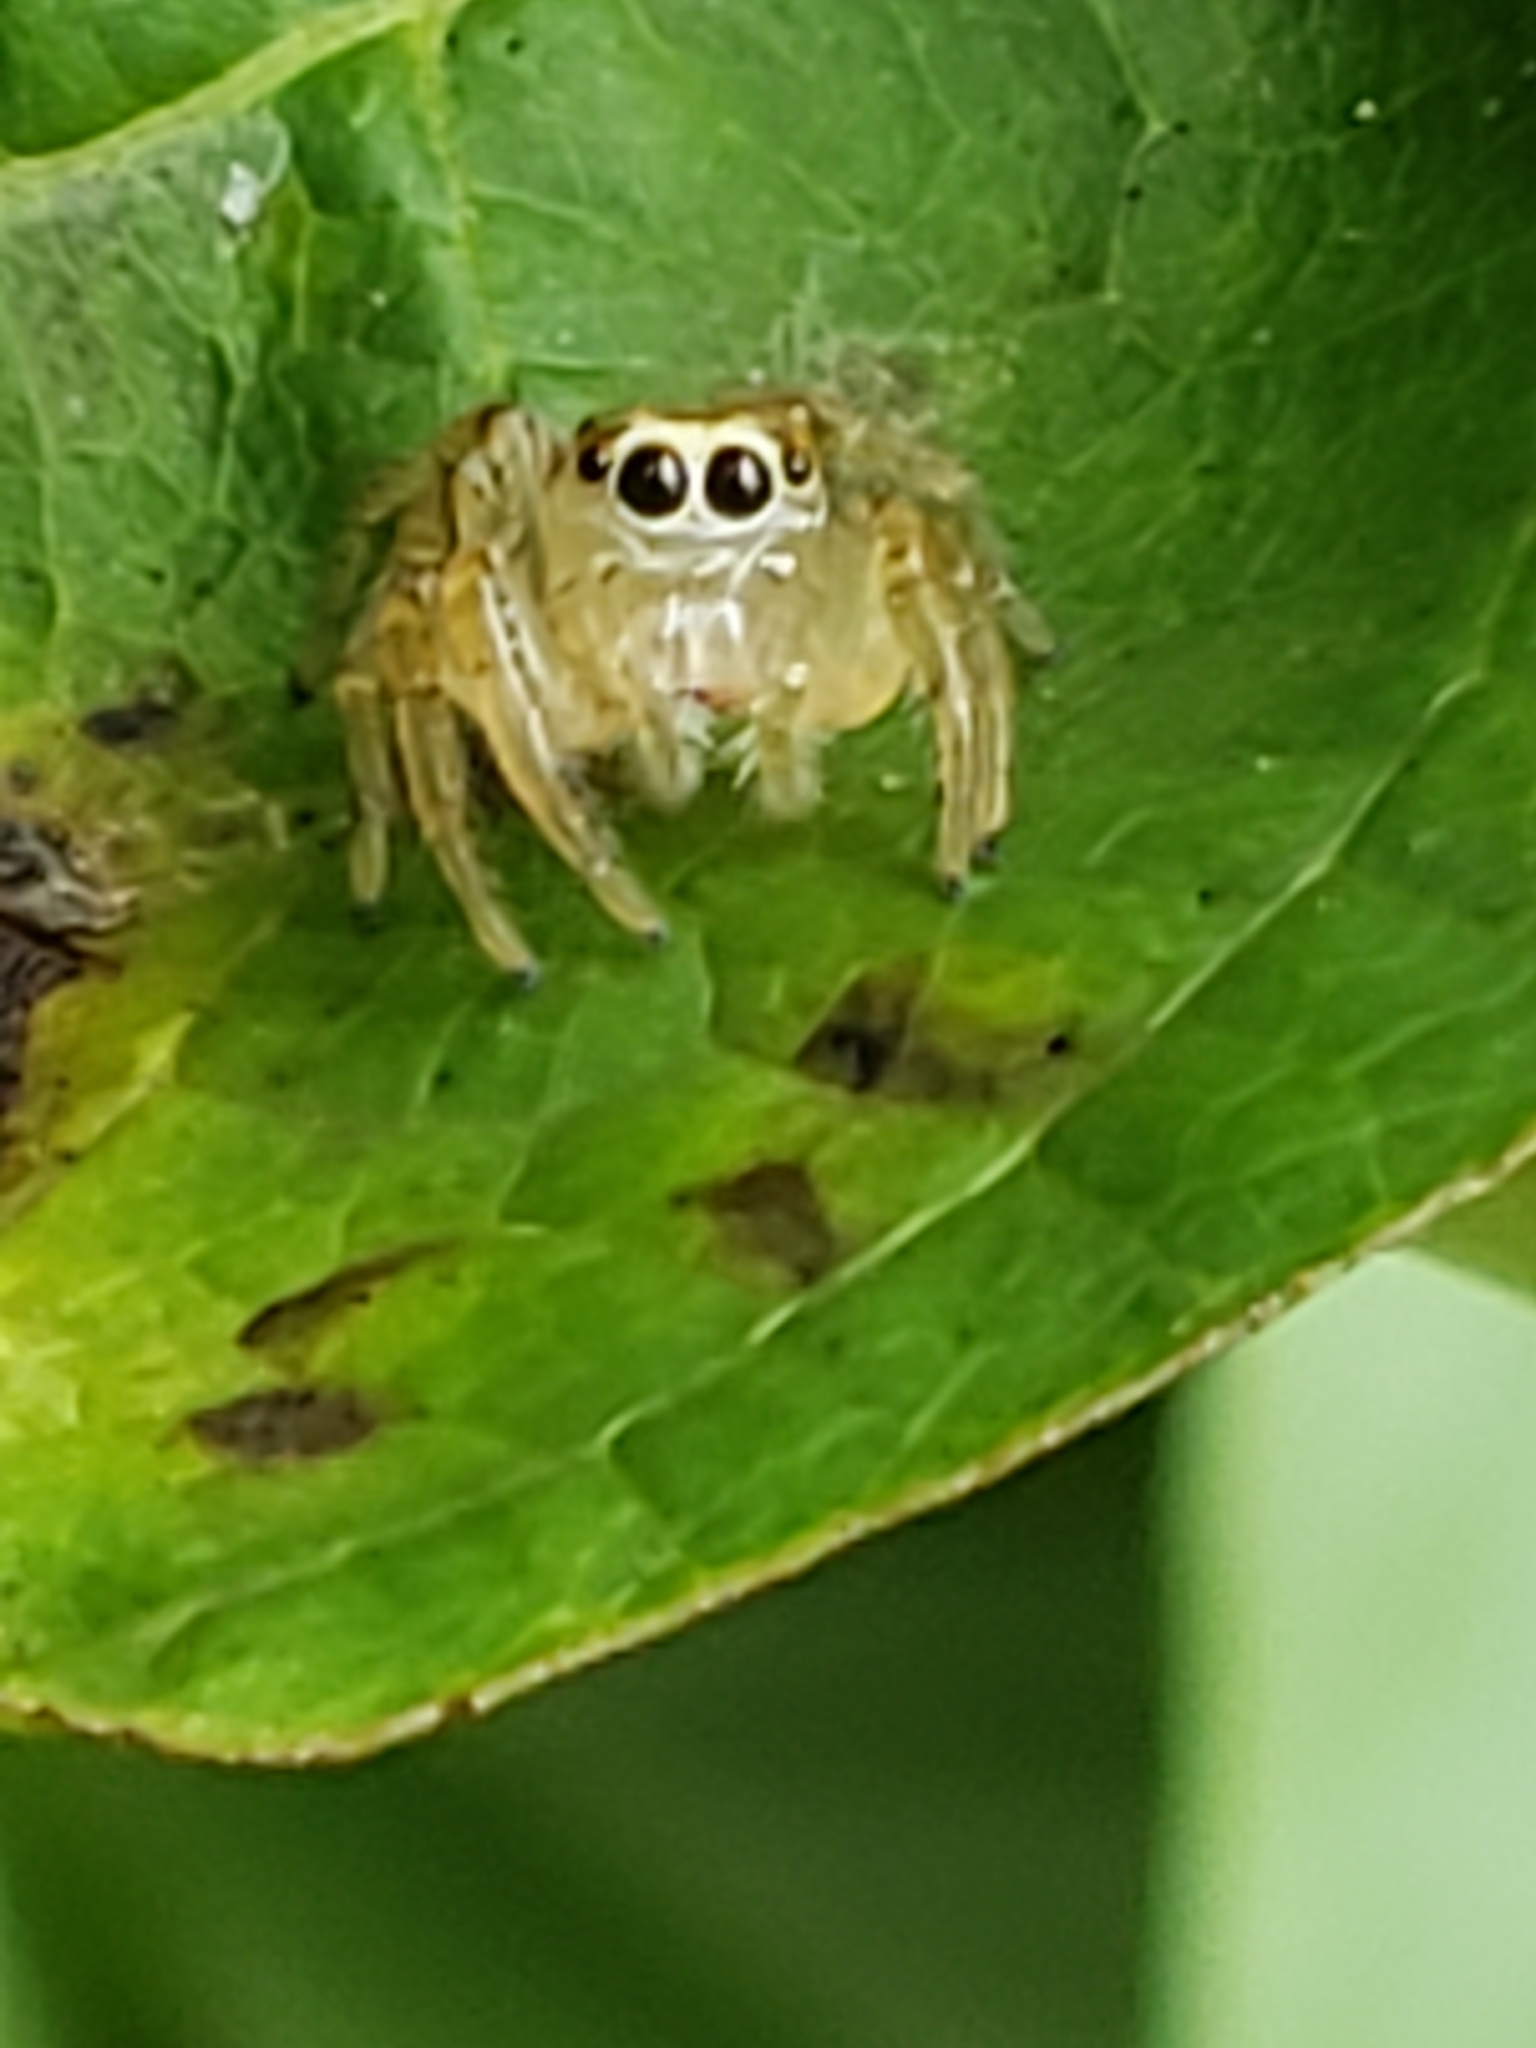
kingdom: Animalia
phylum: Arthropoda
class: Arachnida
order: Araneae
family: Salticidae
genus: Colonus
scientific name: Colonus sylvanus
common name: Jumping spiders
